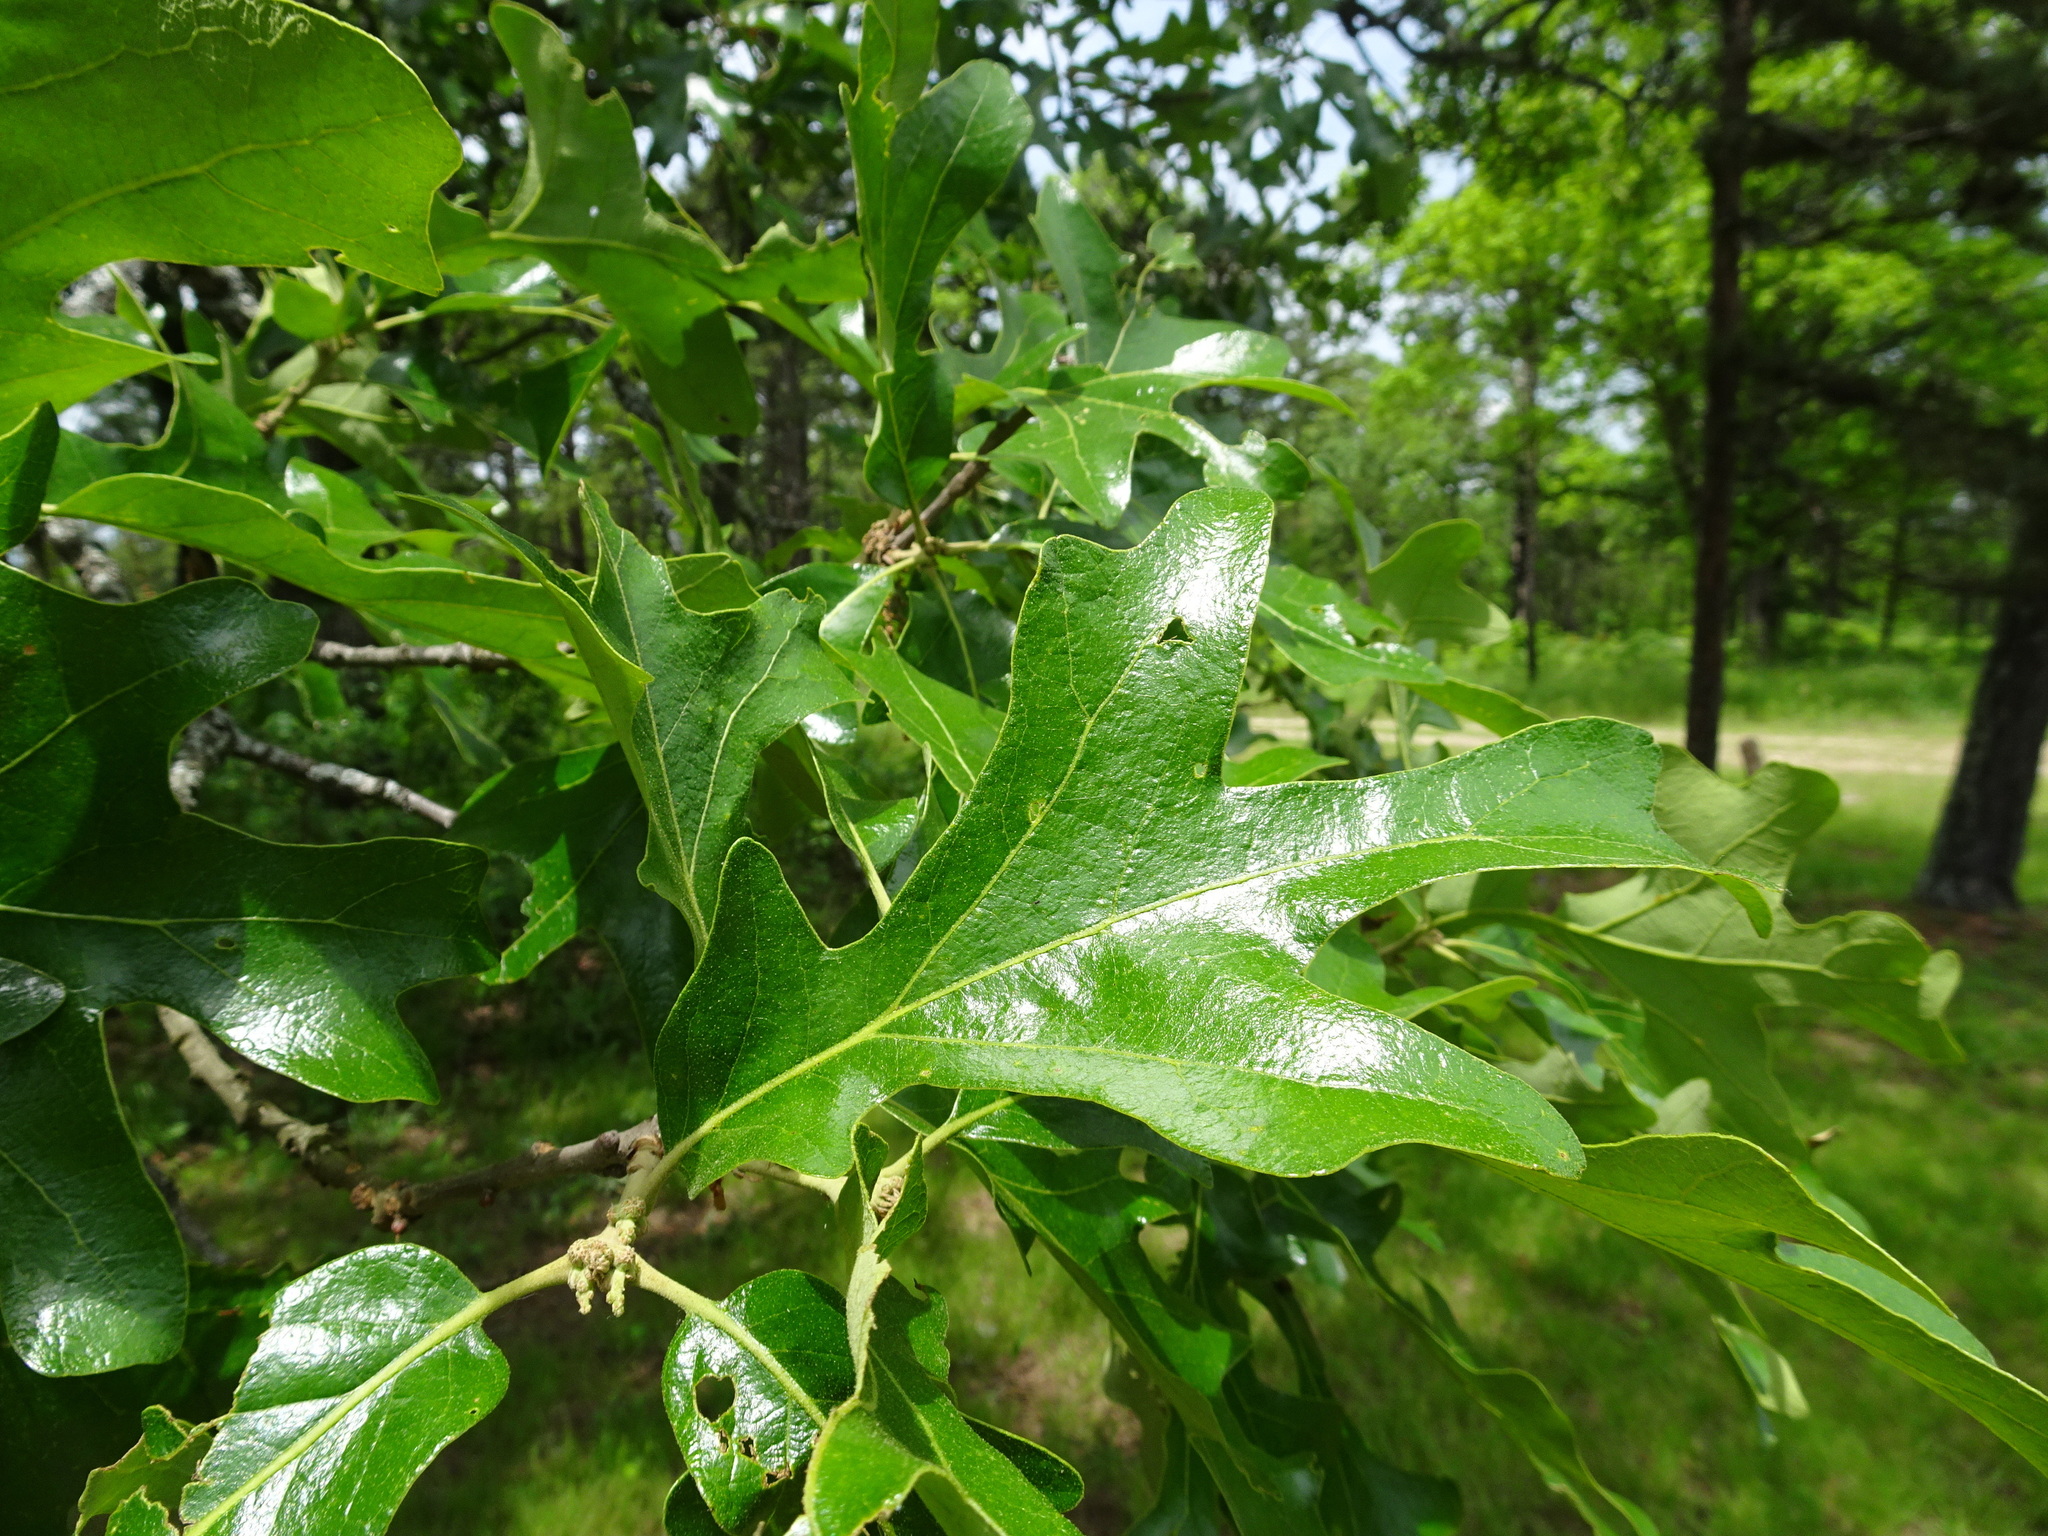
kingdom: Plantae
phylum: Tracheophyta
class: Magnoliopsida
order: Fagales
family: Fagaceae
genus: Quercus
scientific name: Quercus stellata
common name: Post oak
